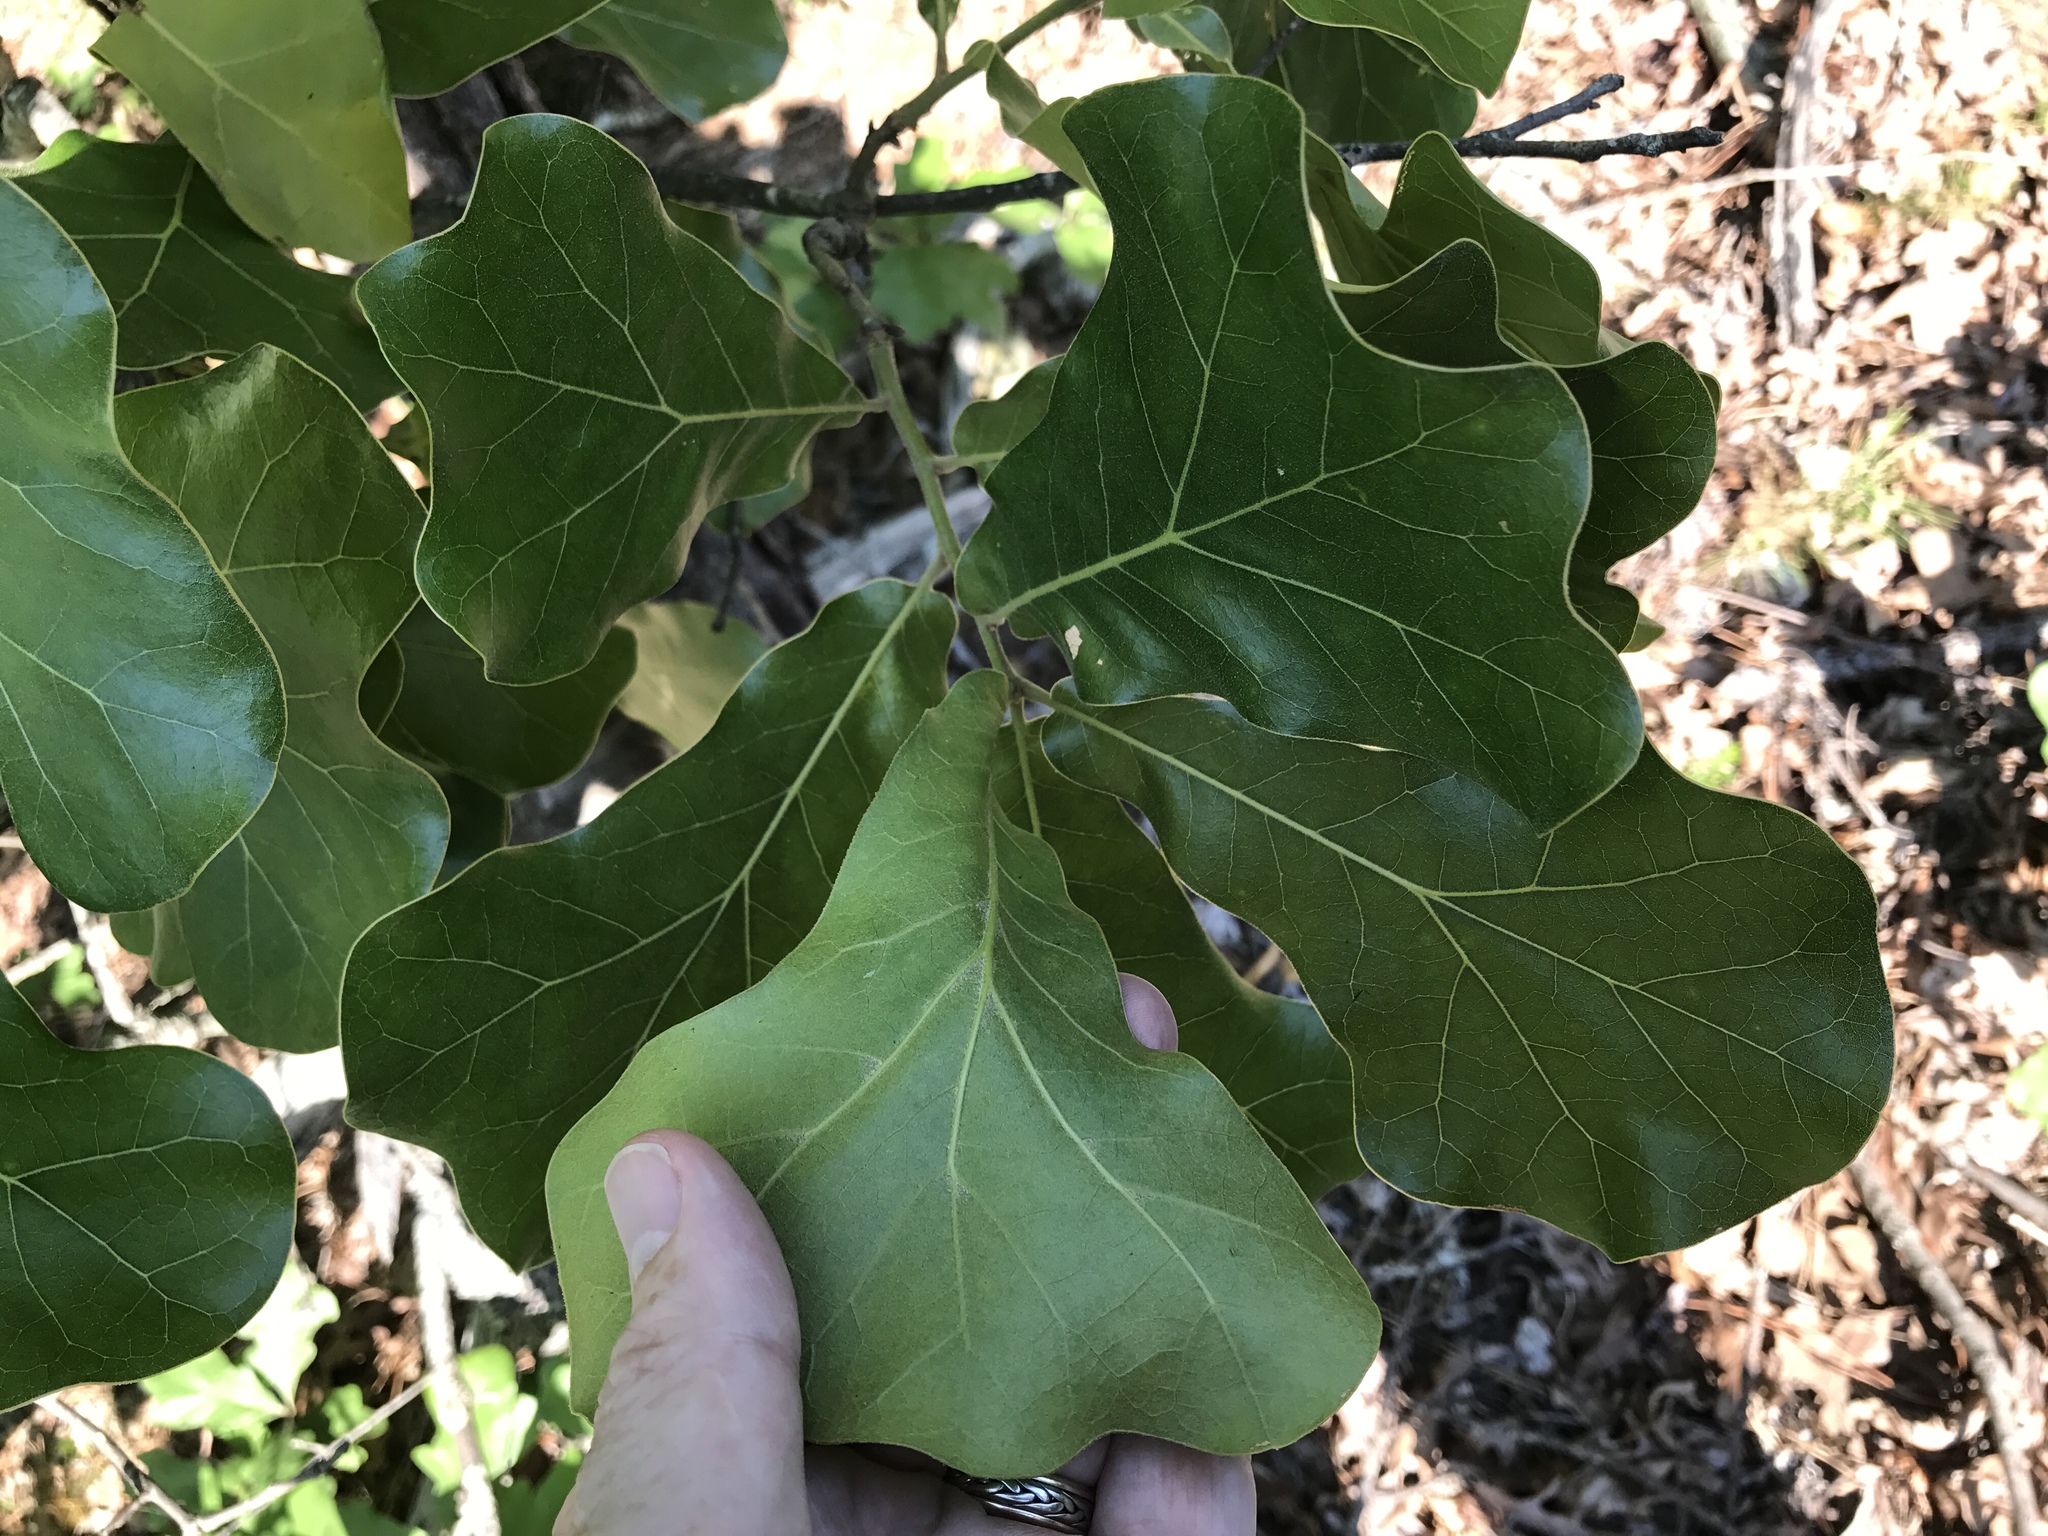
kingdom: Plantae
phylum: Tracheophyta
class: Magnoliopsida
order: Fagales
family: Fagaceae
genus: Quercus
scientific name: Quercus marilandica
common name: Blackjack oak
